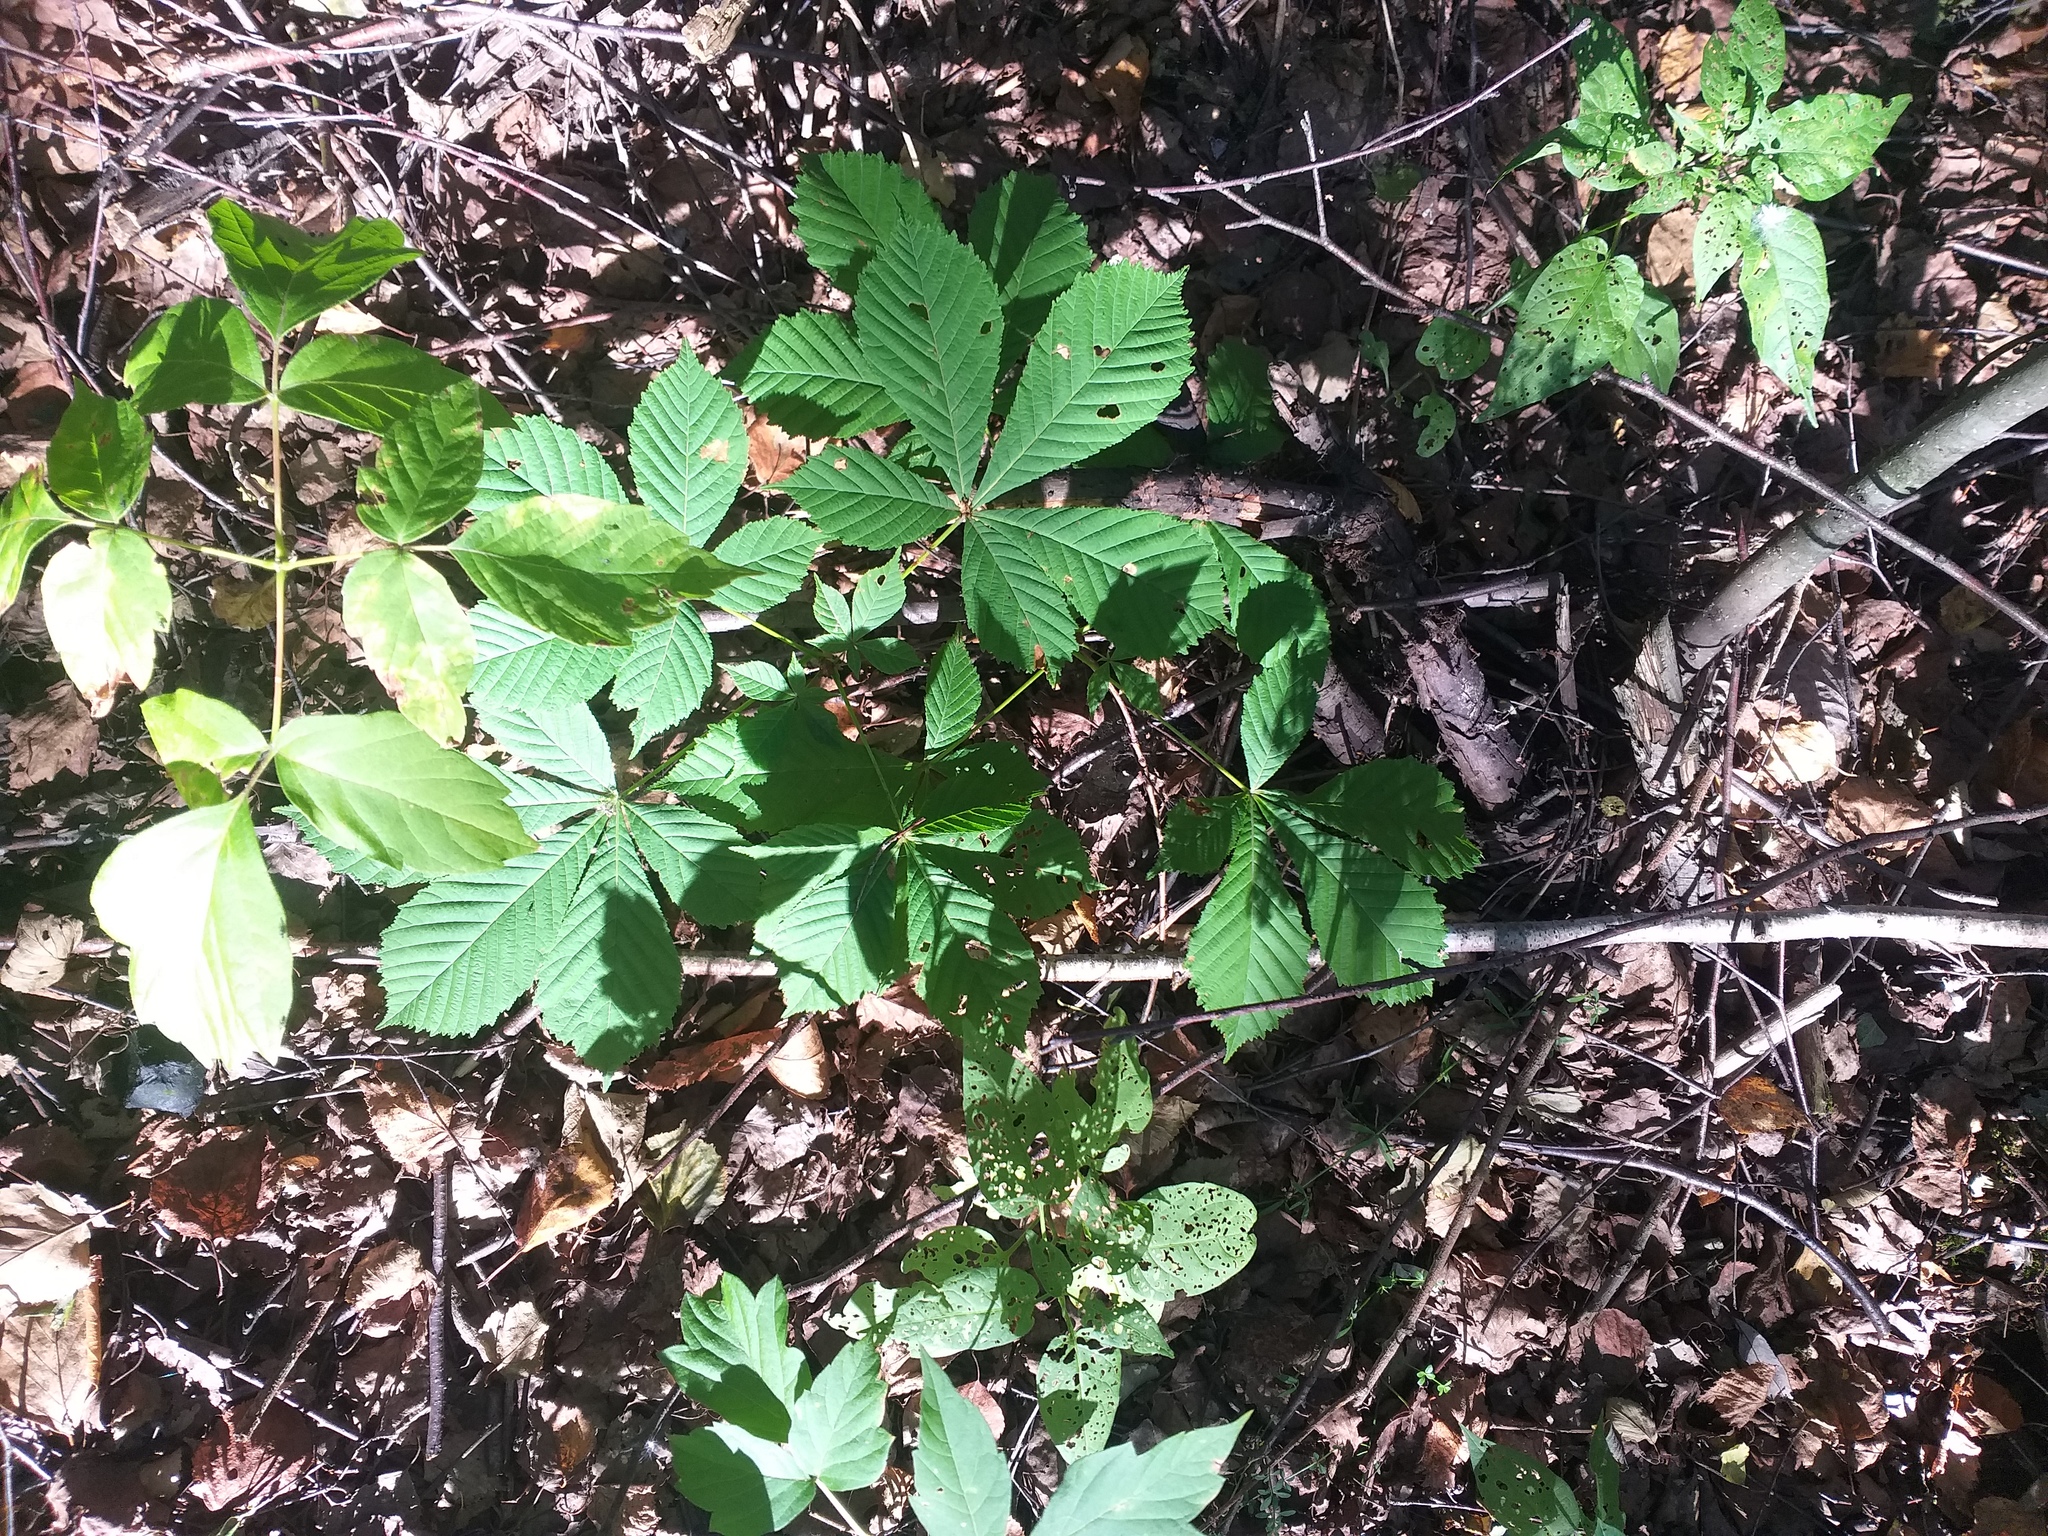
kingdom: Plantae
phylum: Tracheophyta
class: Magnoliopsida
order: Sapindales
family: Sapindaceae
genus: Aesculus
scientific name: Aesculus hippocastanum
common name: Horse-chestnut
